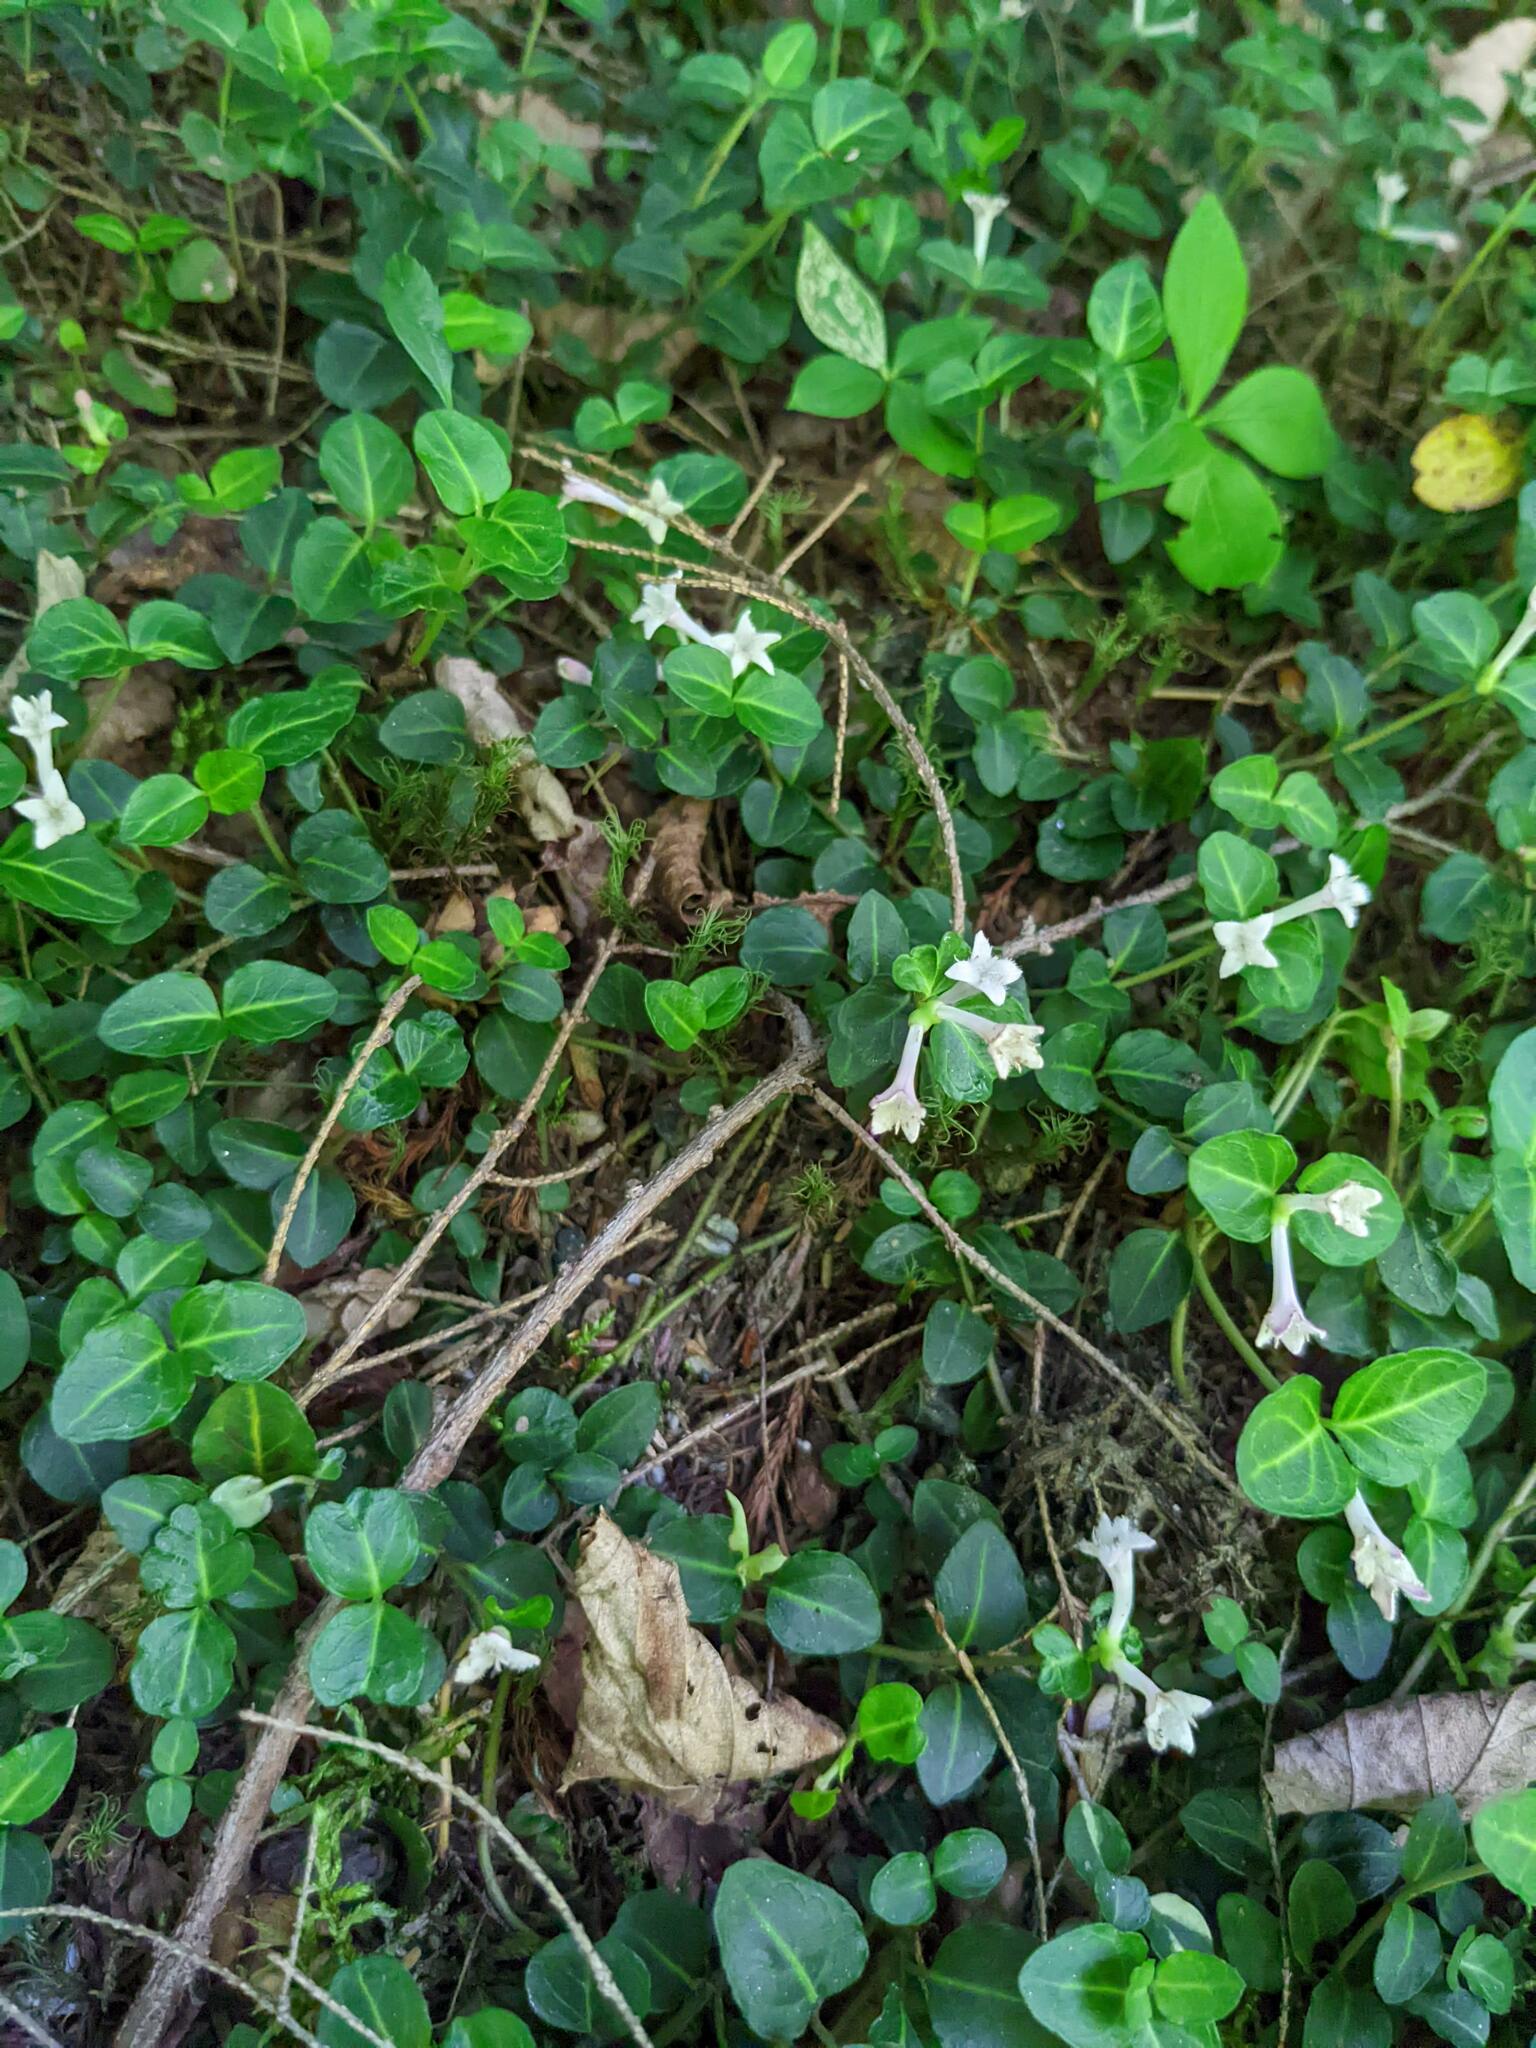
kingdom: Plantae
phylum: Tracheophyta
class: Magnoliopsida
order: Gentianales
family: Rubiaceae
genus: Mitchella
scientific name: Mitchella repens
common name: Partridge-berry
